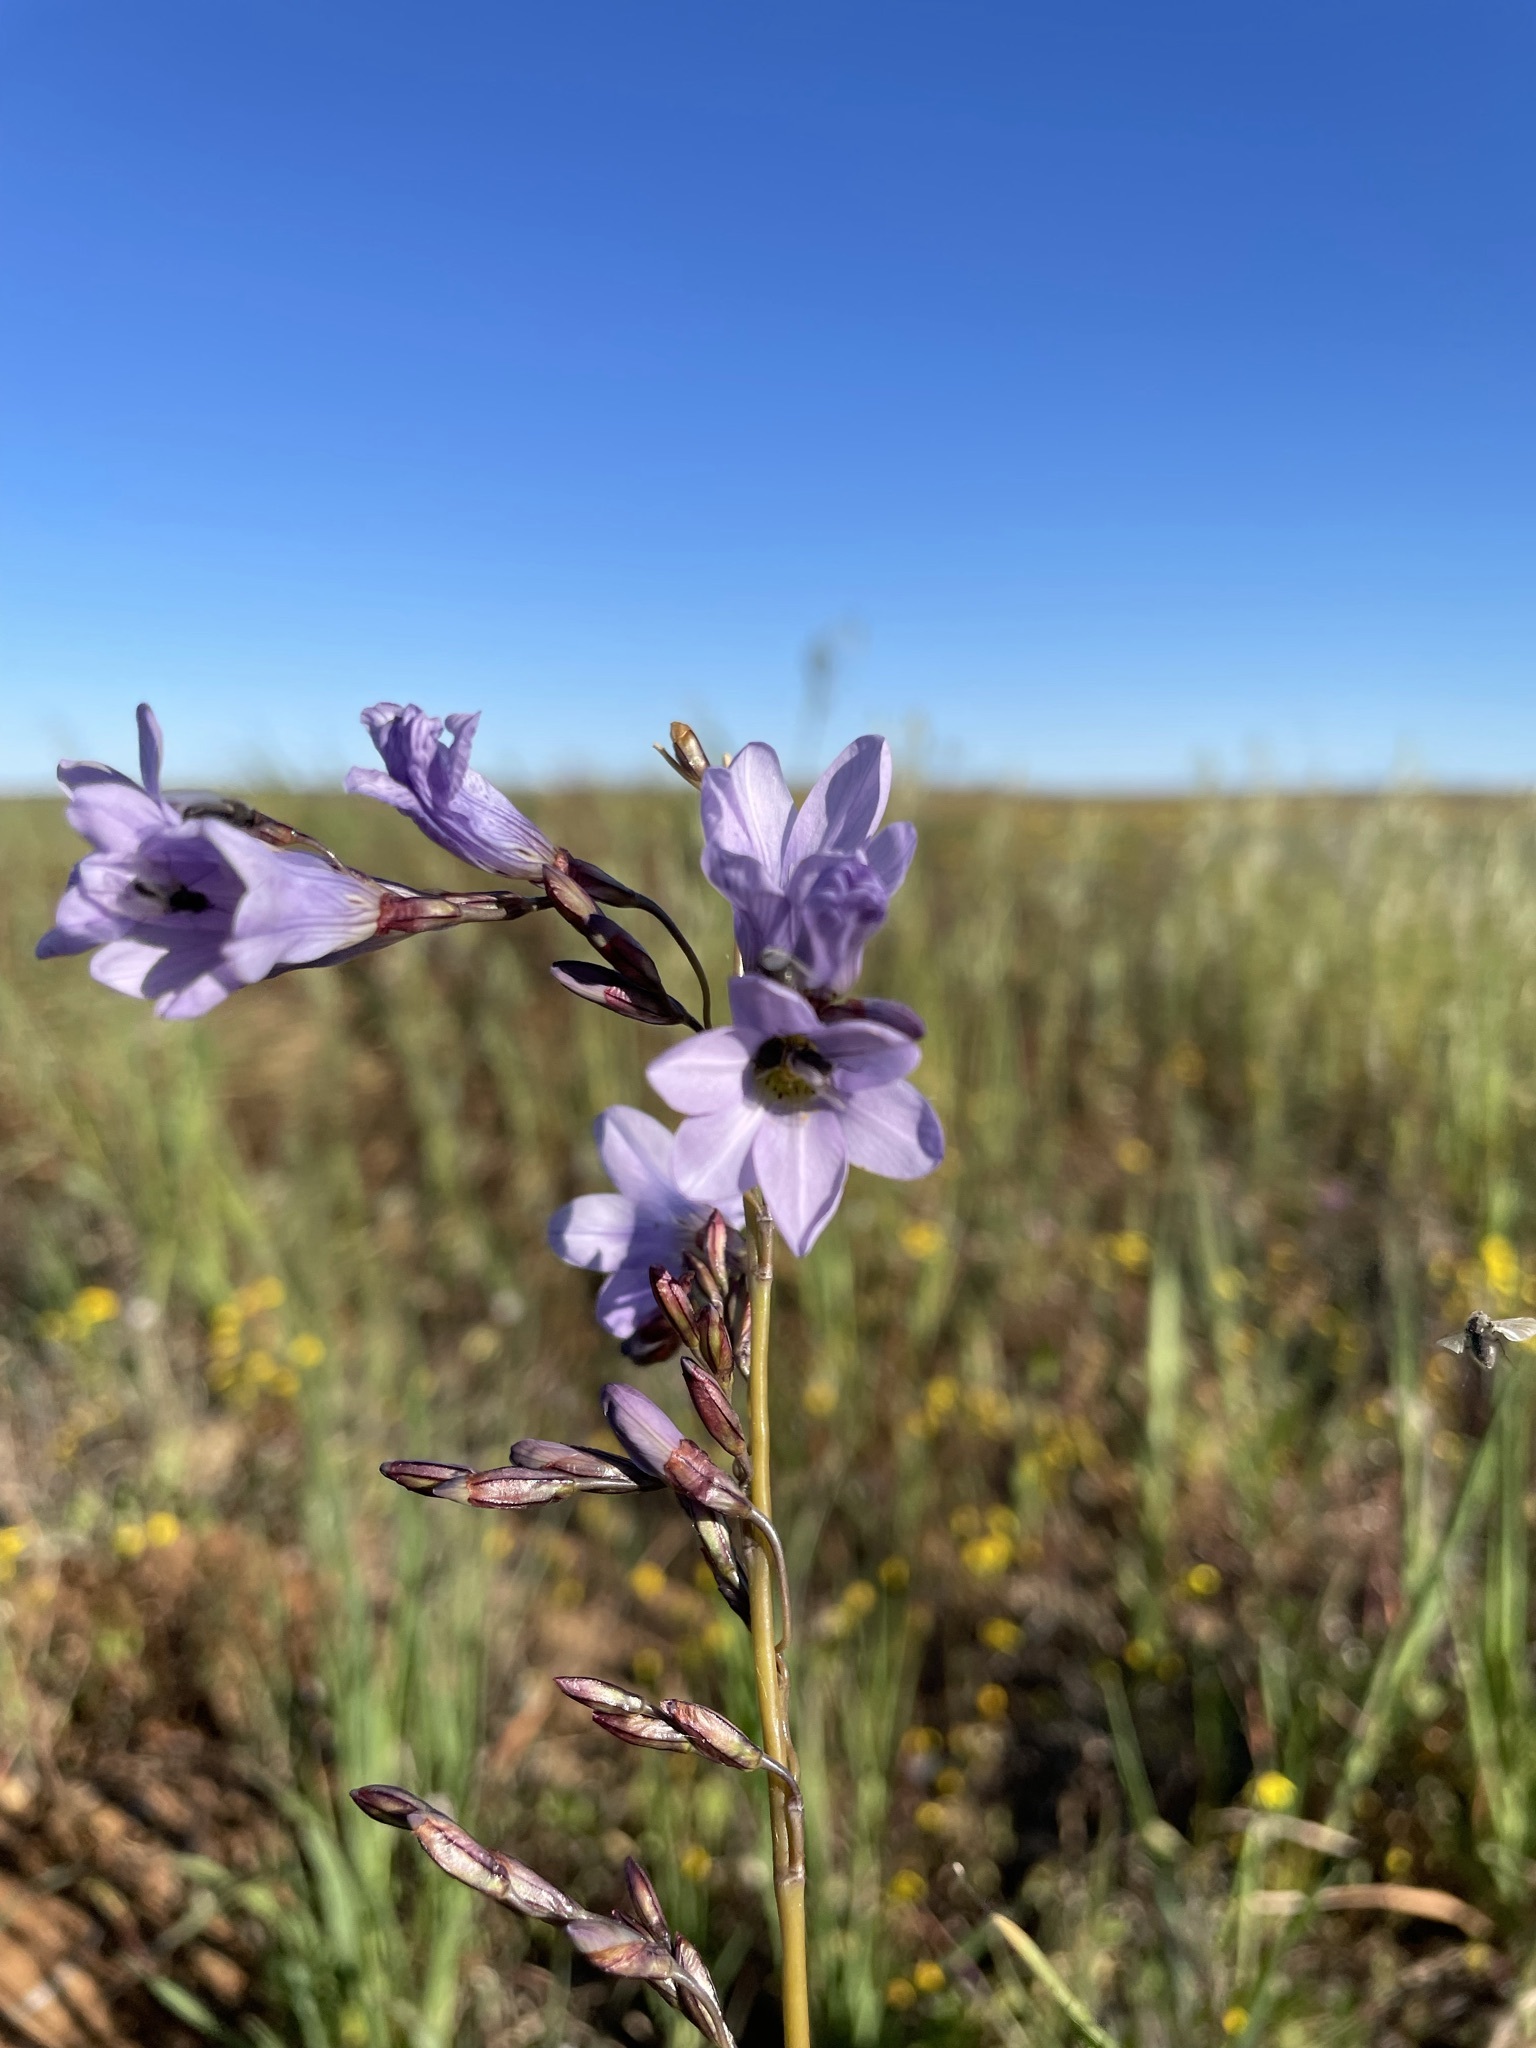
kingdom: Plantae
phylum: Tracheophyta
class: Liliopsida
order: Asparagales
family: Iridaceae
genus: Ixia
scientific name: Ixia rapunculoides
